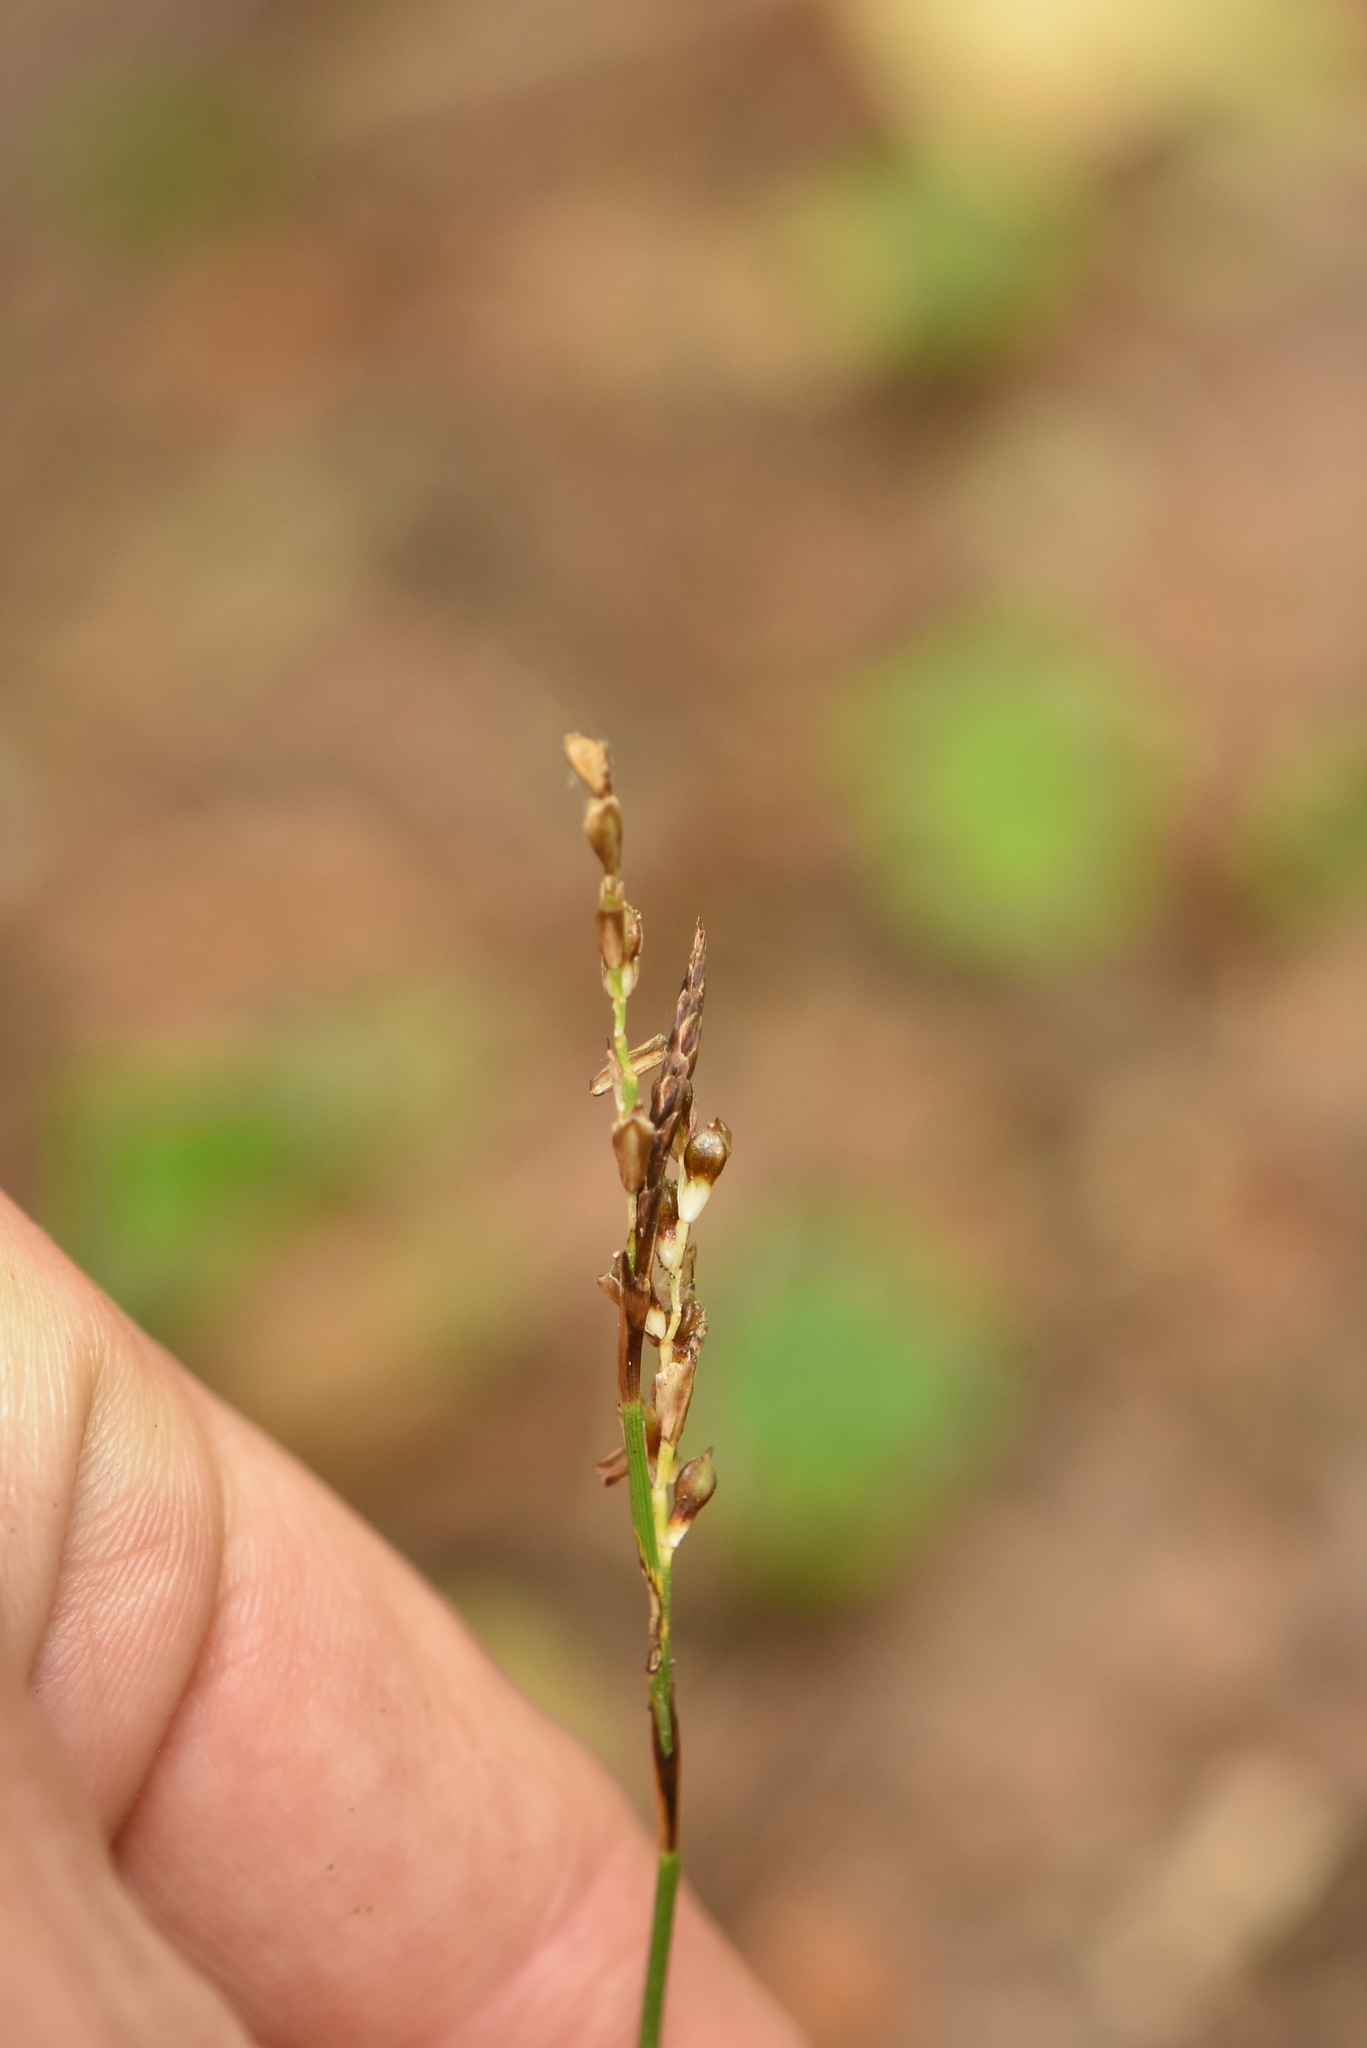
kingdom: Plantae
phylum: Tracheophyta
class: Liliopsida
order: Poales
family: Cyperaceae
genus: Carex
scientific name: Carex digitata
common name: Fingered sedge
